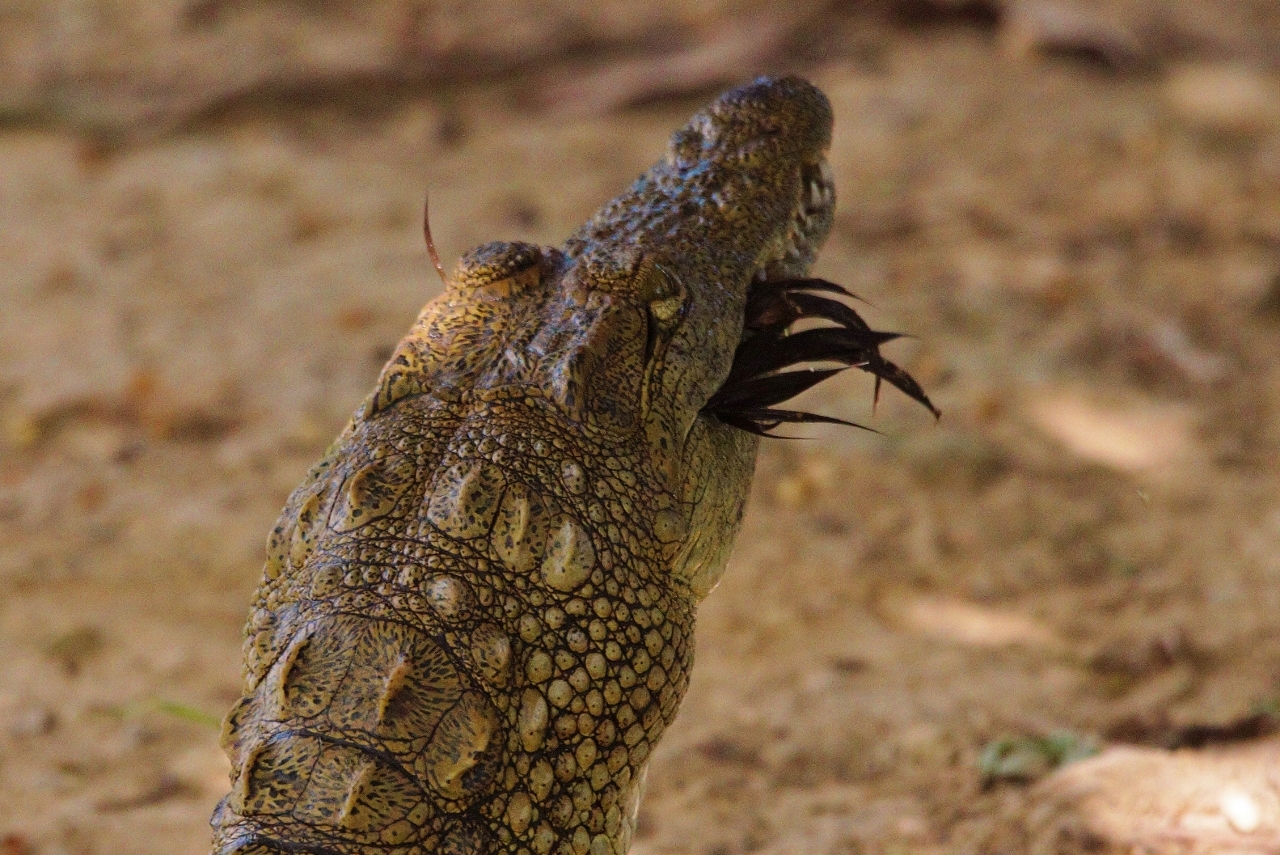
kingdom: Animalia
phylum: Chordata
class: Crocodylia
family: Crocodylidae
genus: Crocodylus
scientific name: Crocodylus niloticus
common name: Nile crocodile
